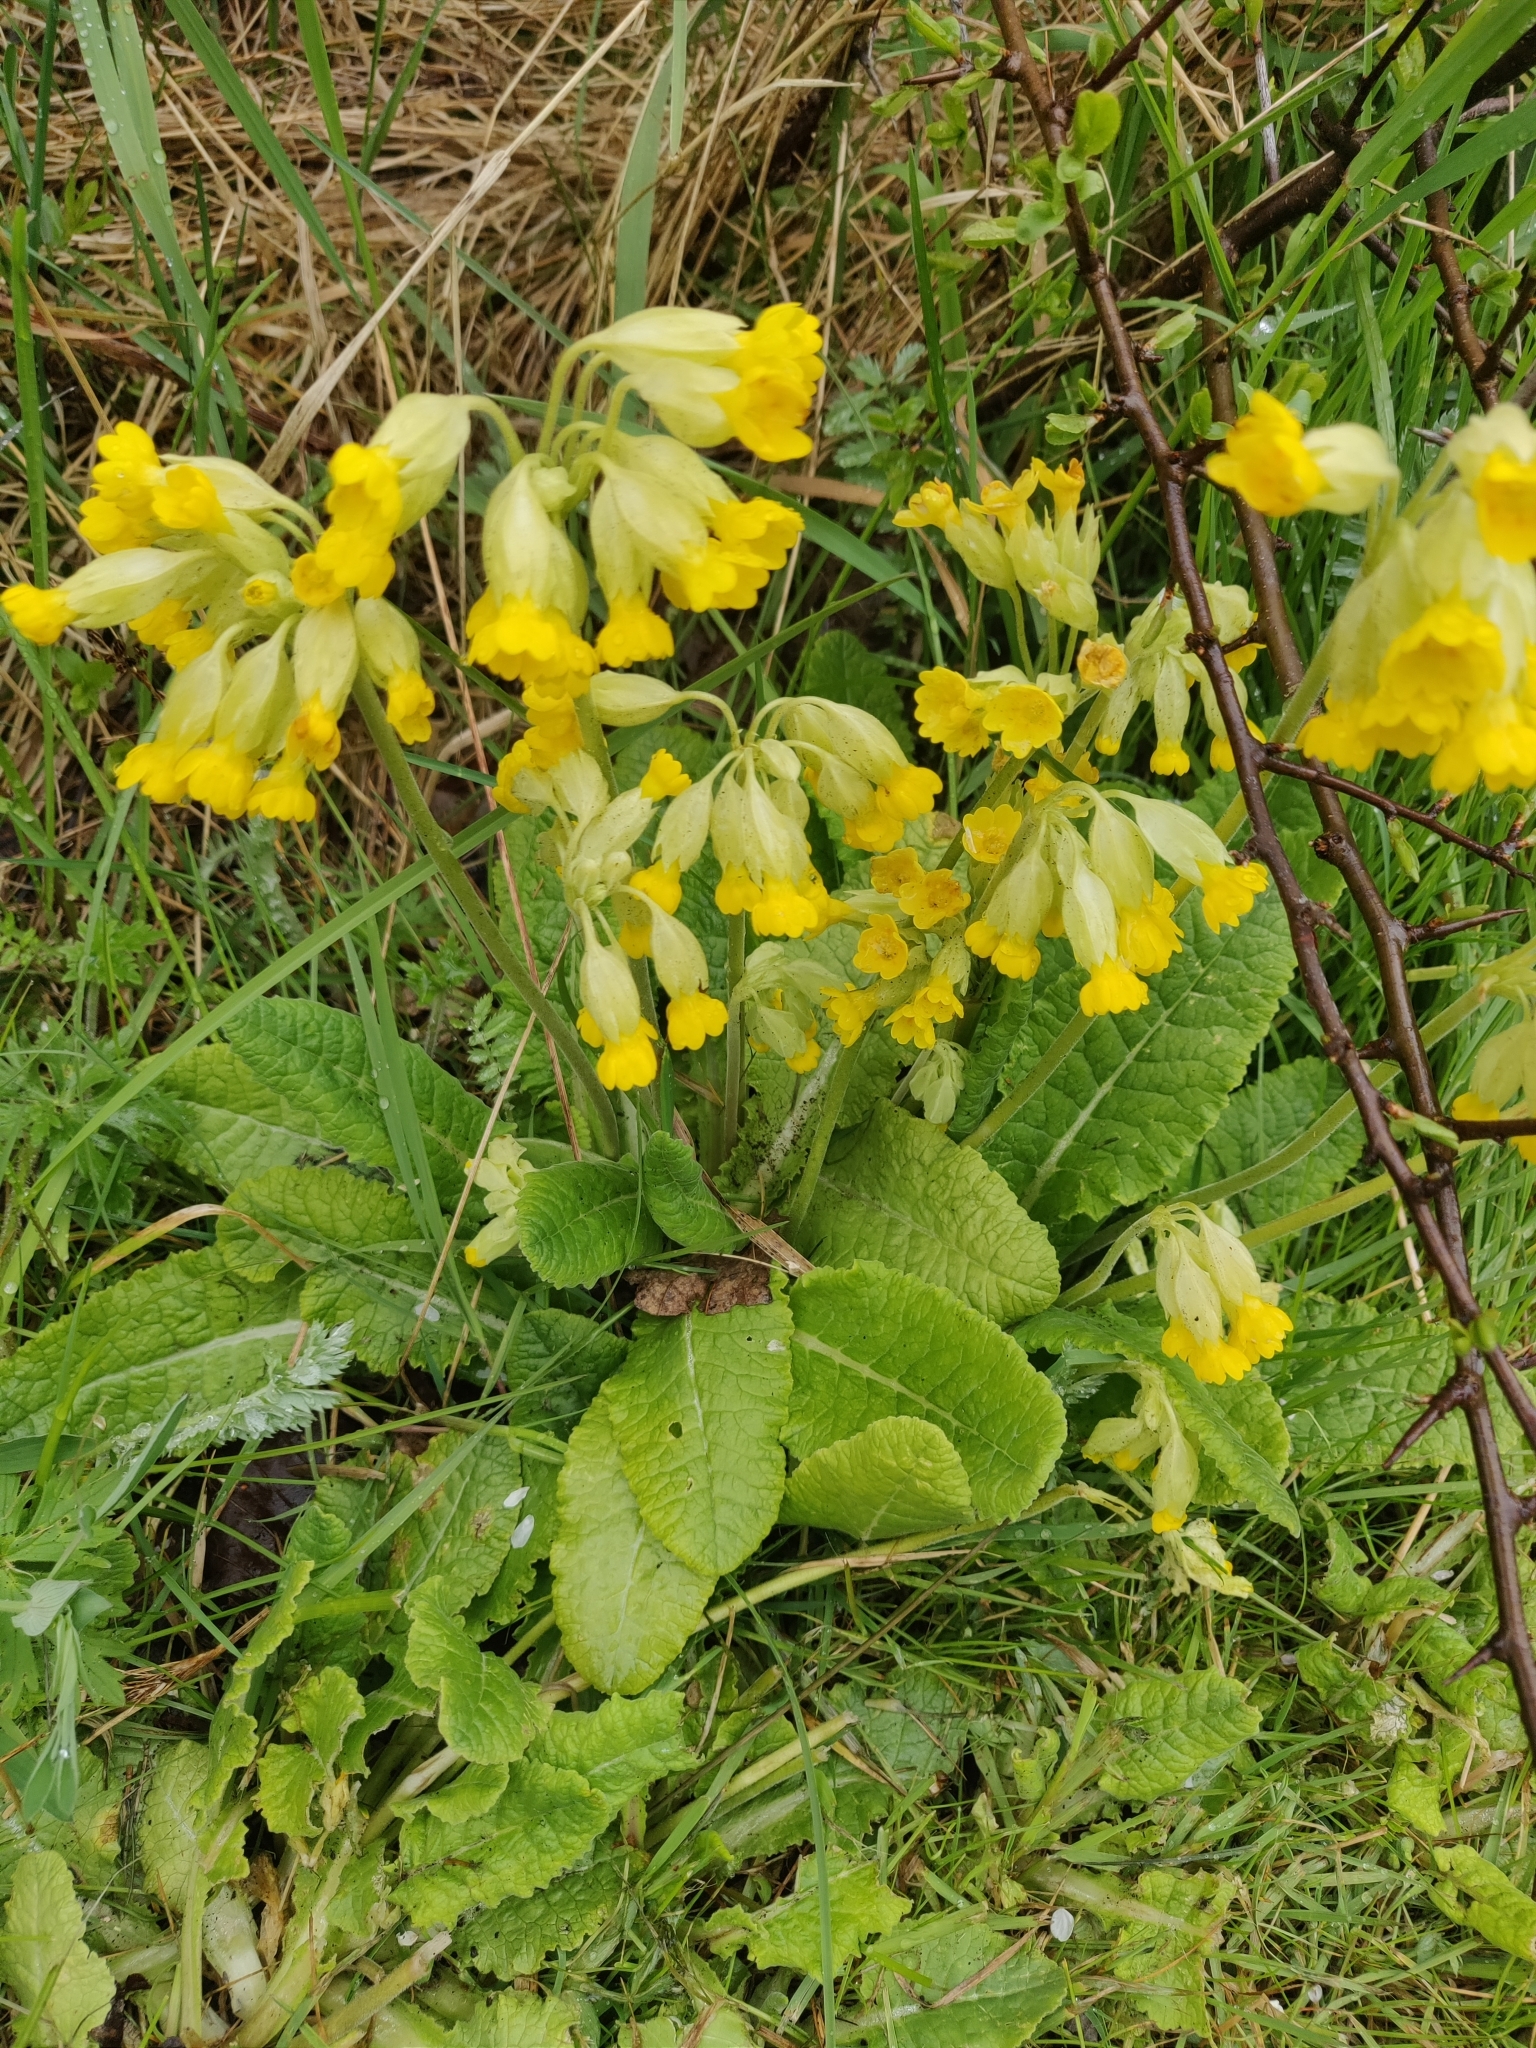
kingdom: Plantae
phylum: Tracheophyta
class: Magnoliopsida
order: Ericales
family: Primulaceae
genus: Primula
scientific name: Primula veris
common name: Cowslip
